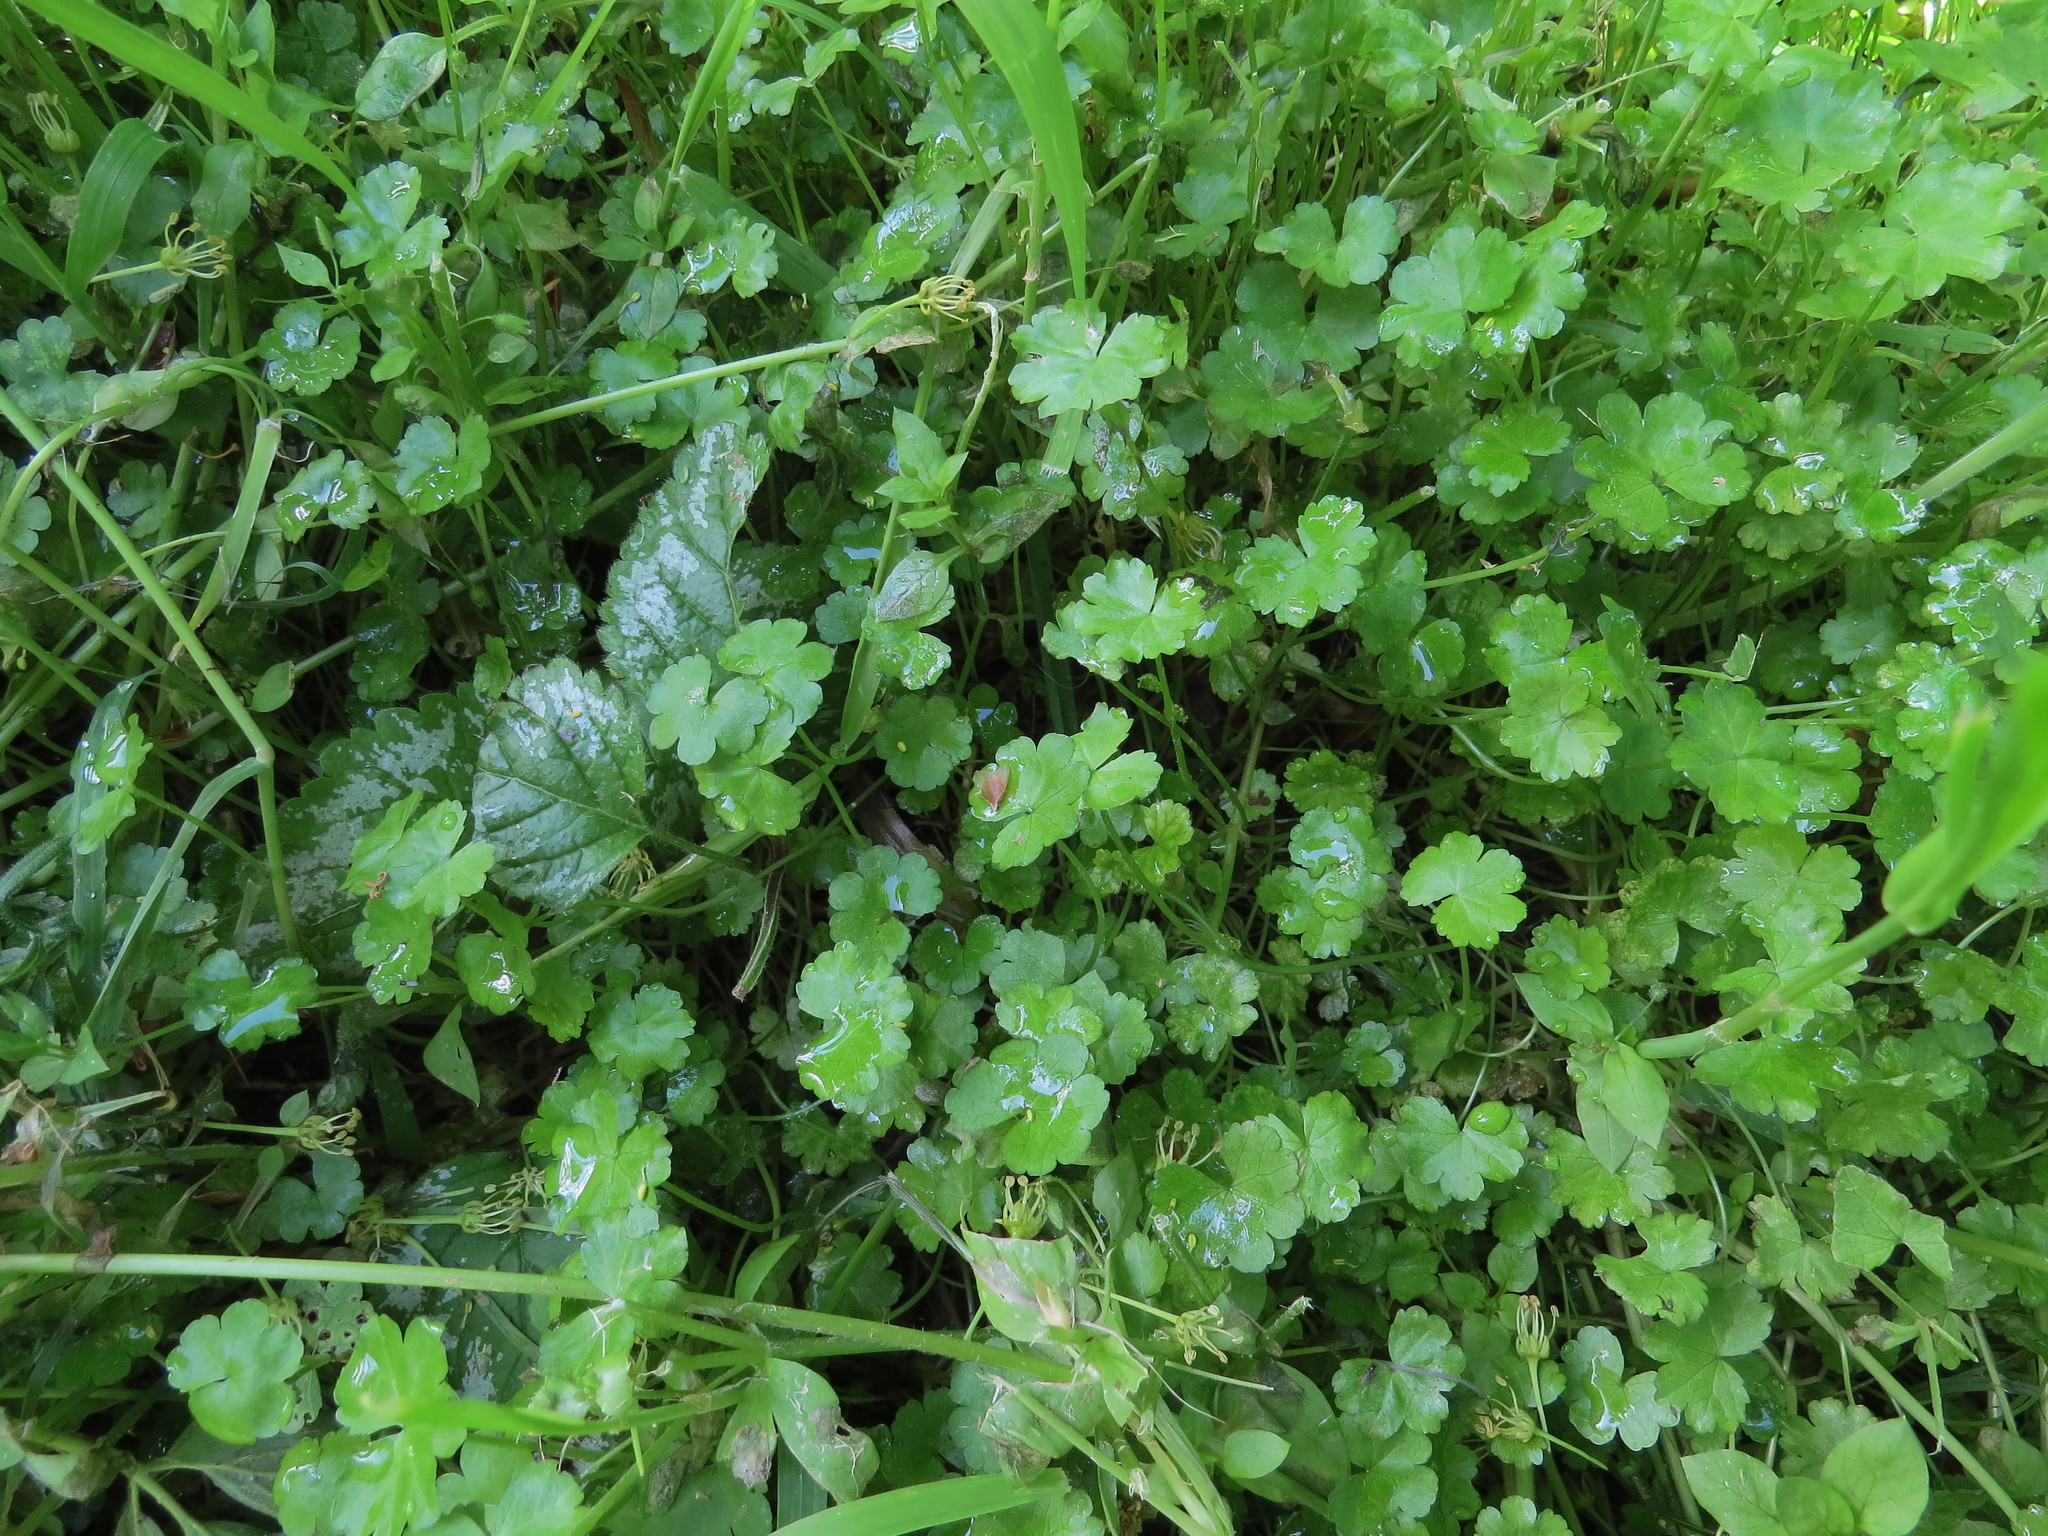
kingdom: Plantae
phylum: Tracheophyta
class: Magnoliopsida
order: Apiales
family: Araliaceae
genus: Hydrocotyle
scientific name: Hydrocotyle heteromeria
